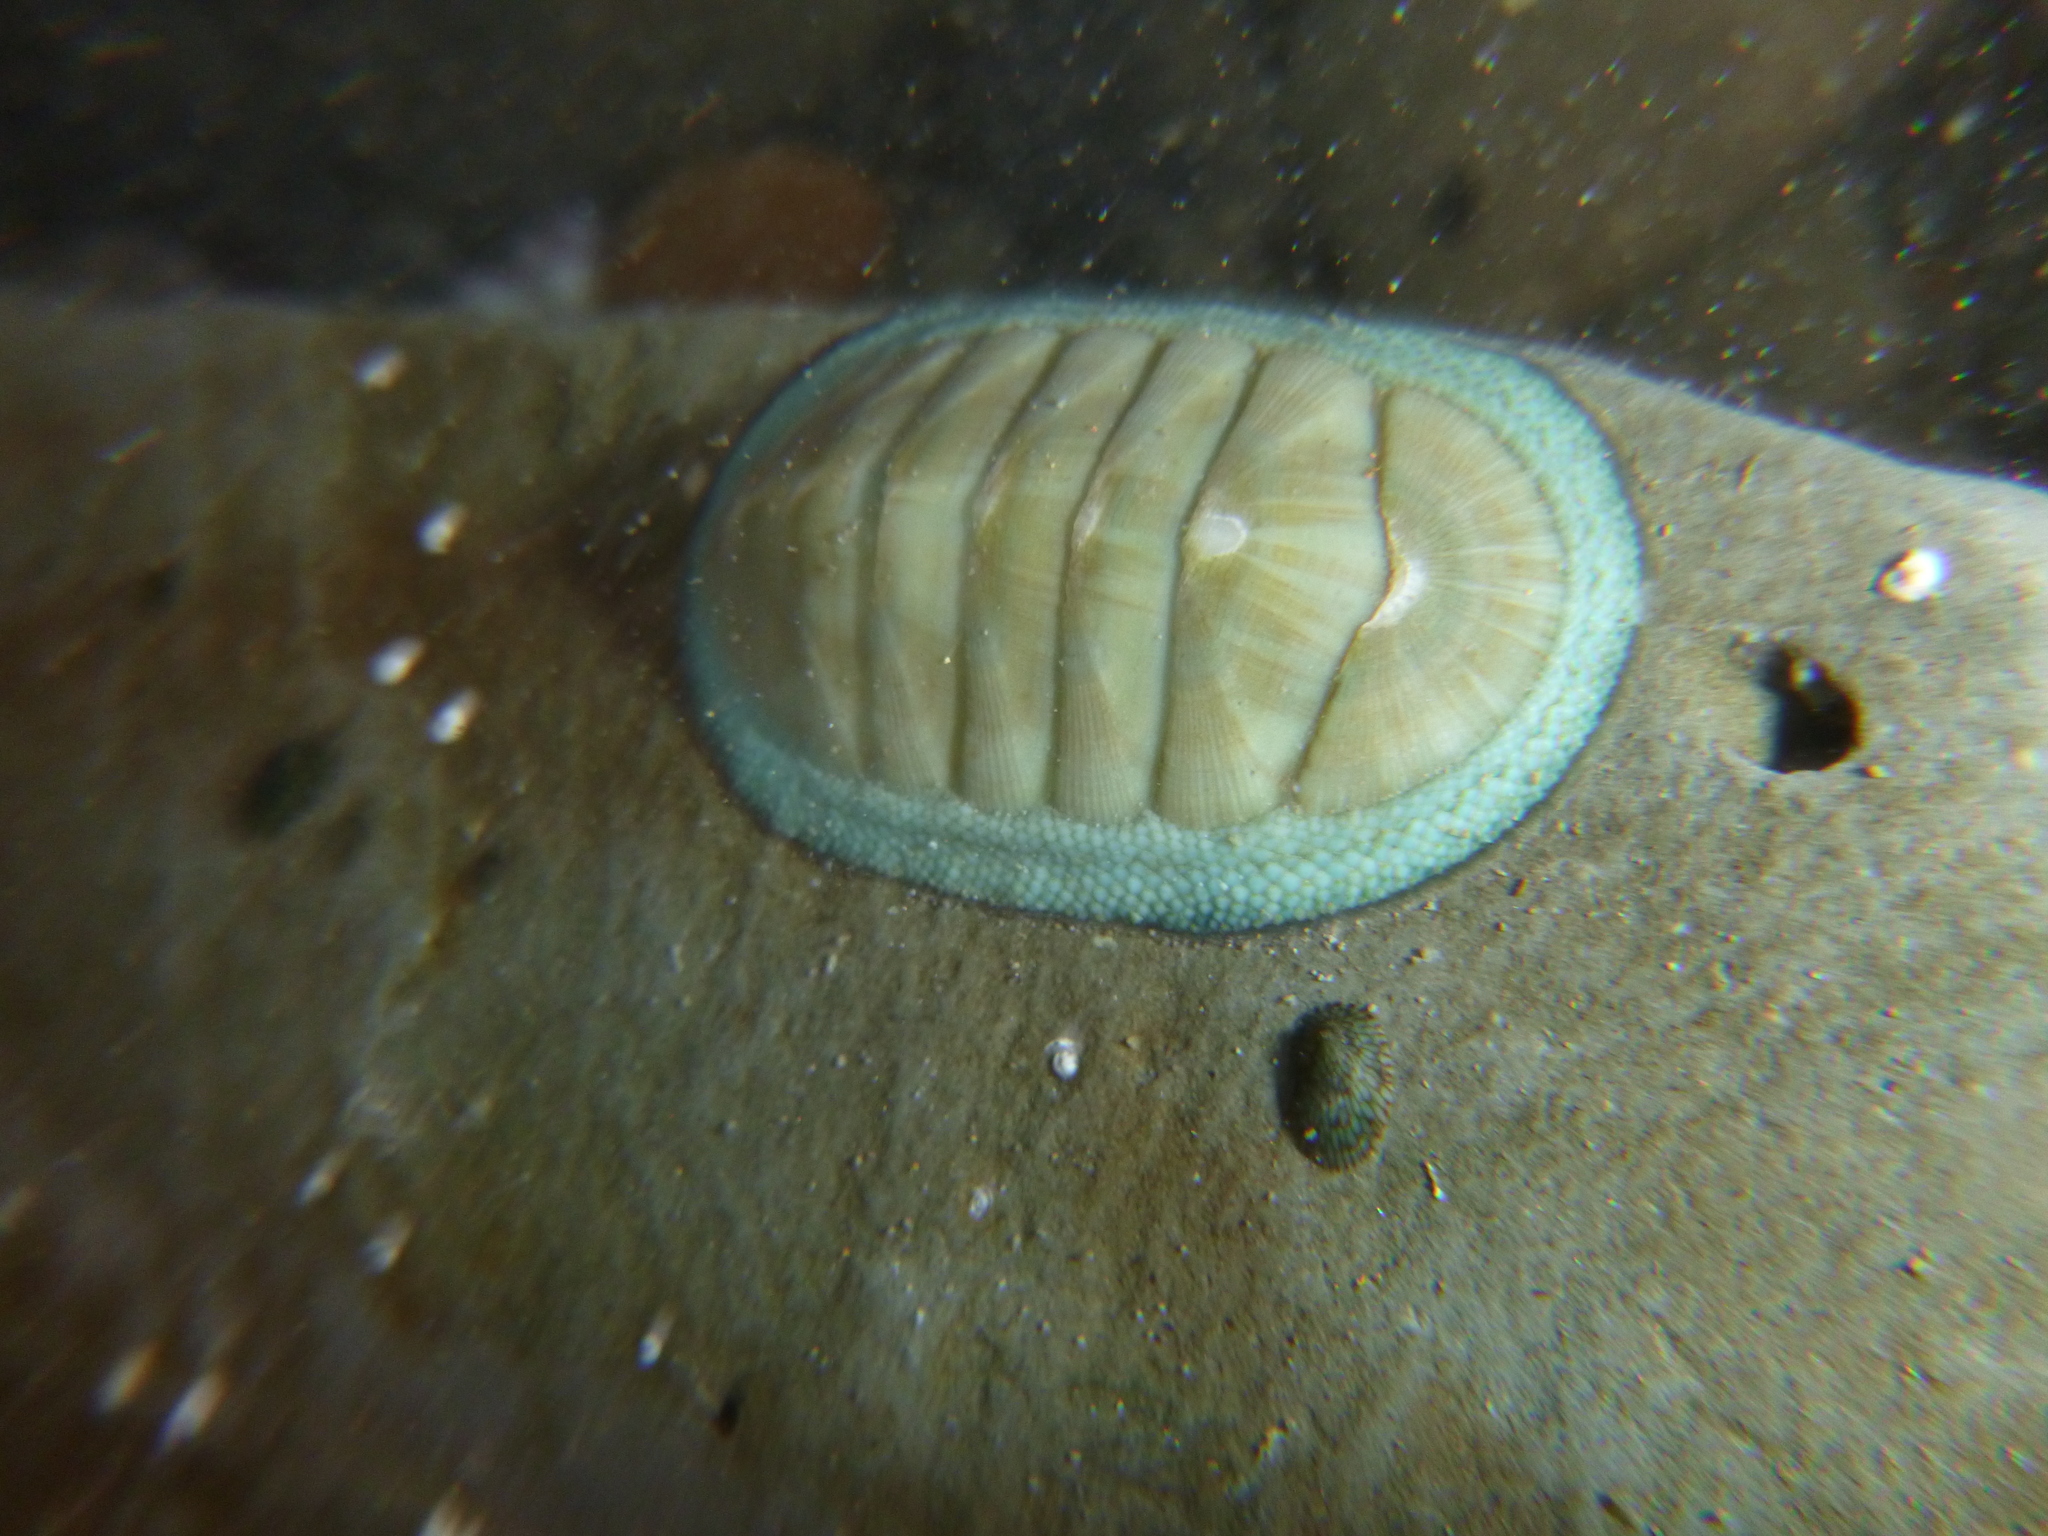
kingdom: Animalia
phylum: Mollusca
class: Polyplacophora
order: Chitonida
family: Chitonidae
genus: Chiton
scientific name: Chiton glaucus
